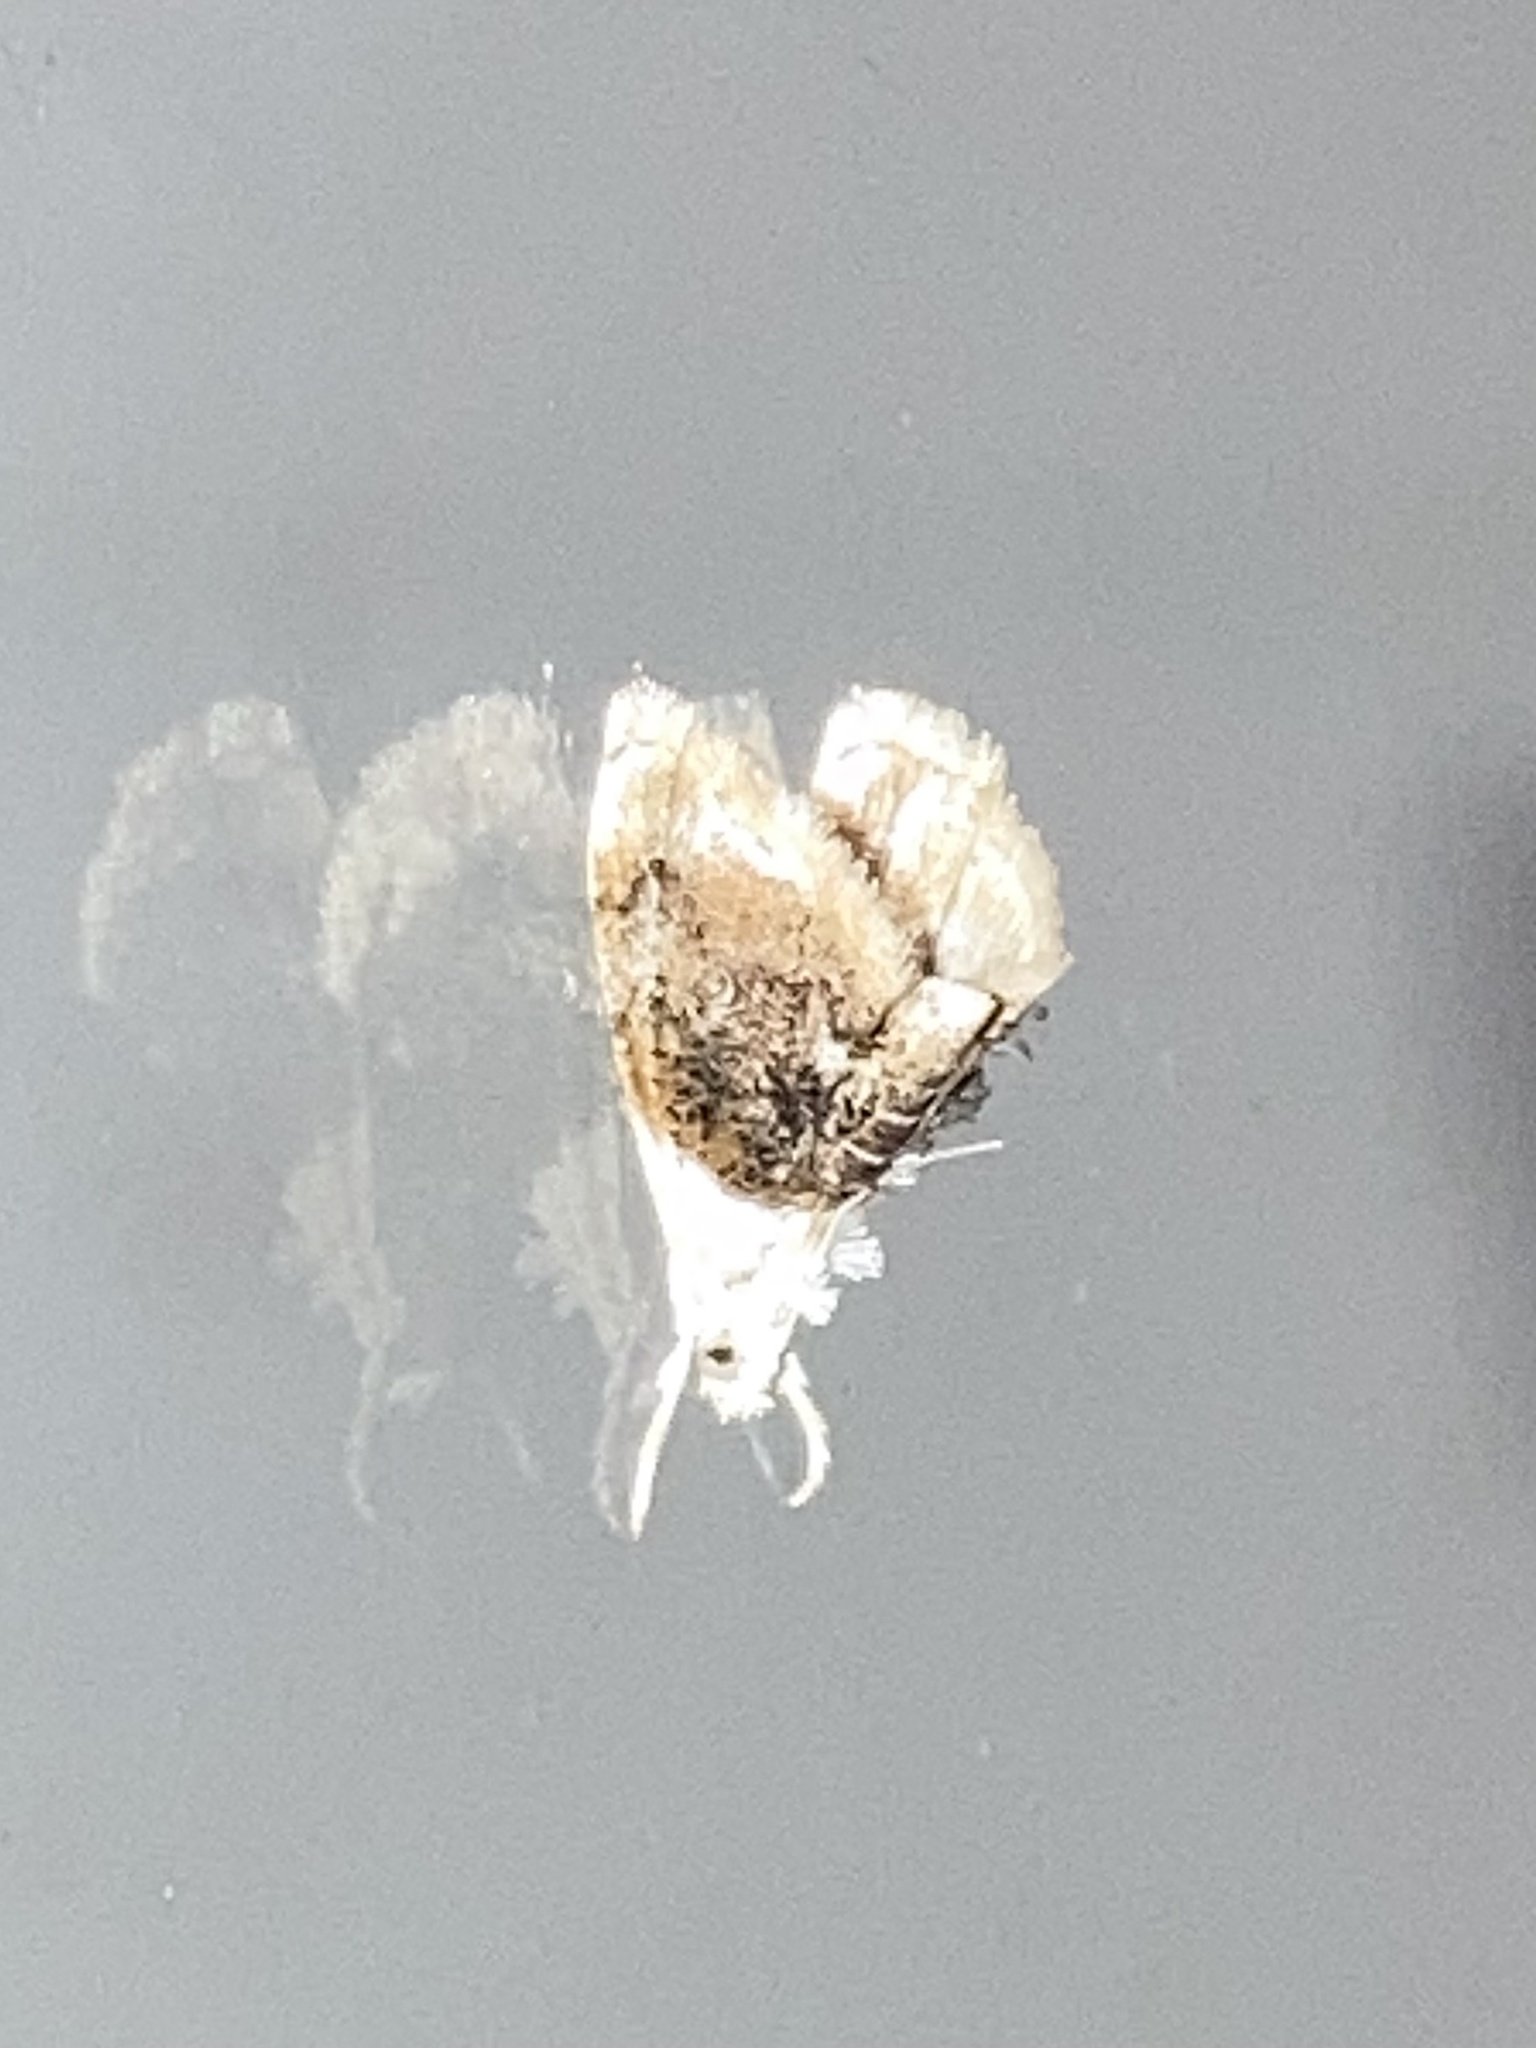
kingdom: Animalia
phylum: Arthropoda
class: Insecta
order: Lepidoptera
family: Crambidae
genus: Lipocosmodes
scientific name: Lipocosmodes fuliginosalis
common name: Sooty lipocosmodes moth
